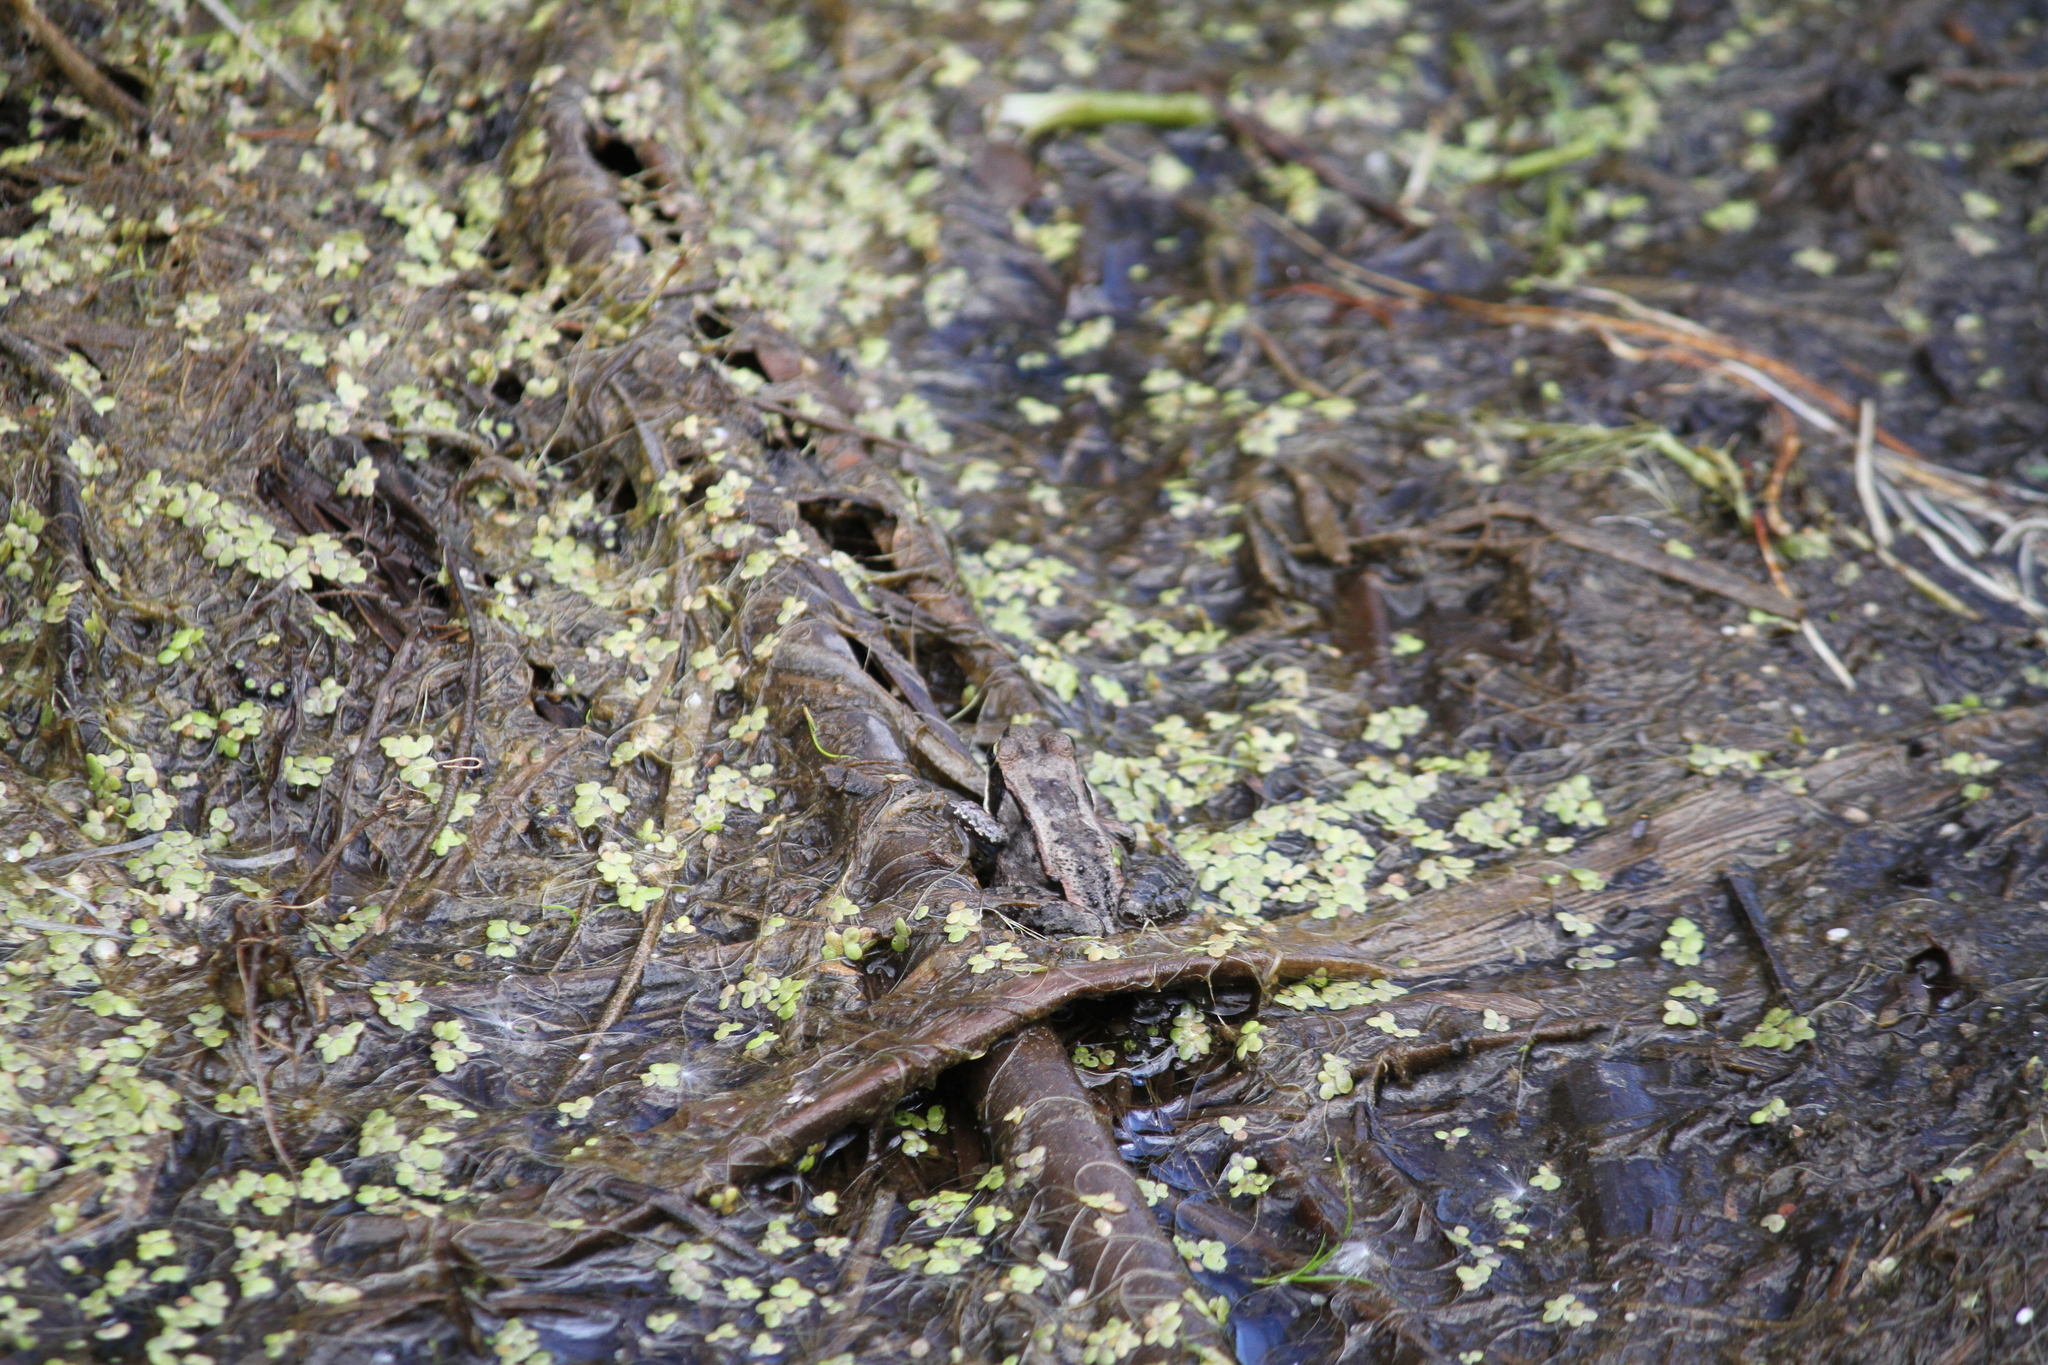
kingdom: Animalia
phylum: Chordata
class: Amphibia
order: Anura
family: Ranidae
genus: Lithobates
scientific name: Lithobates sylvaticus
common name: Wood frog
